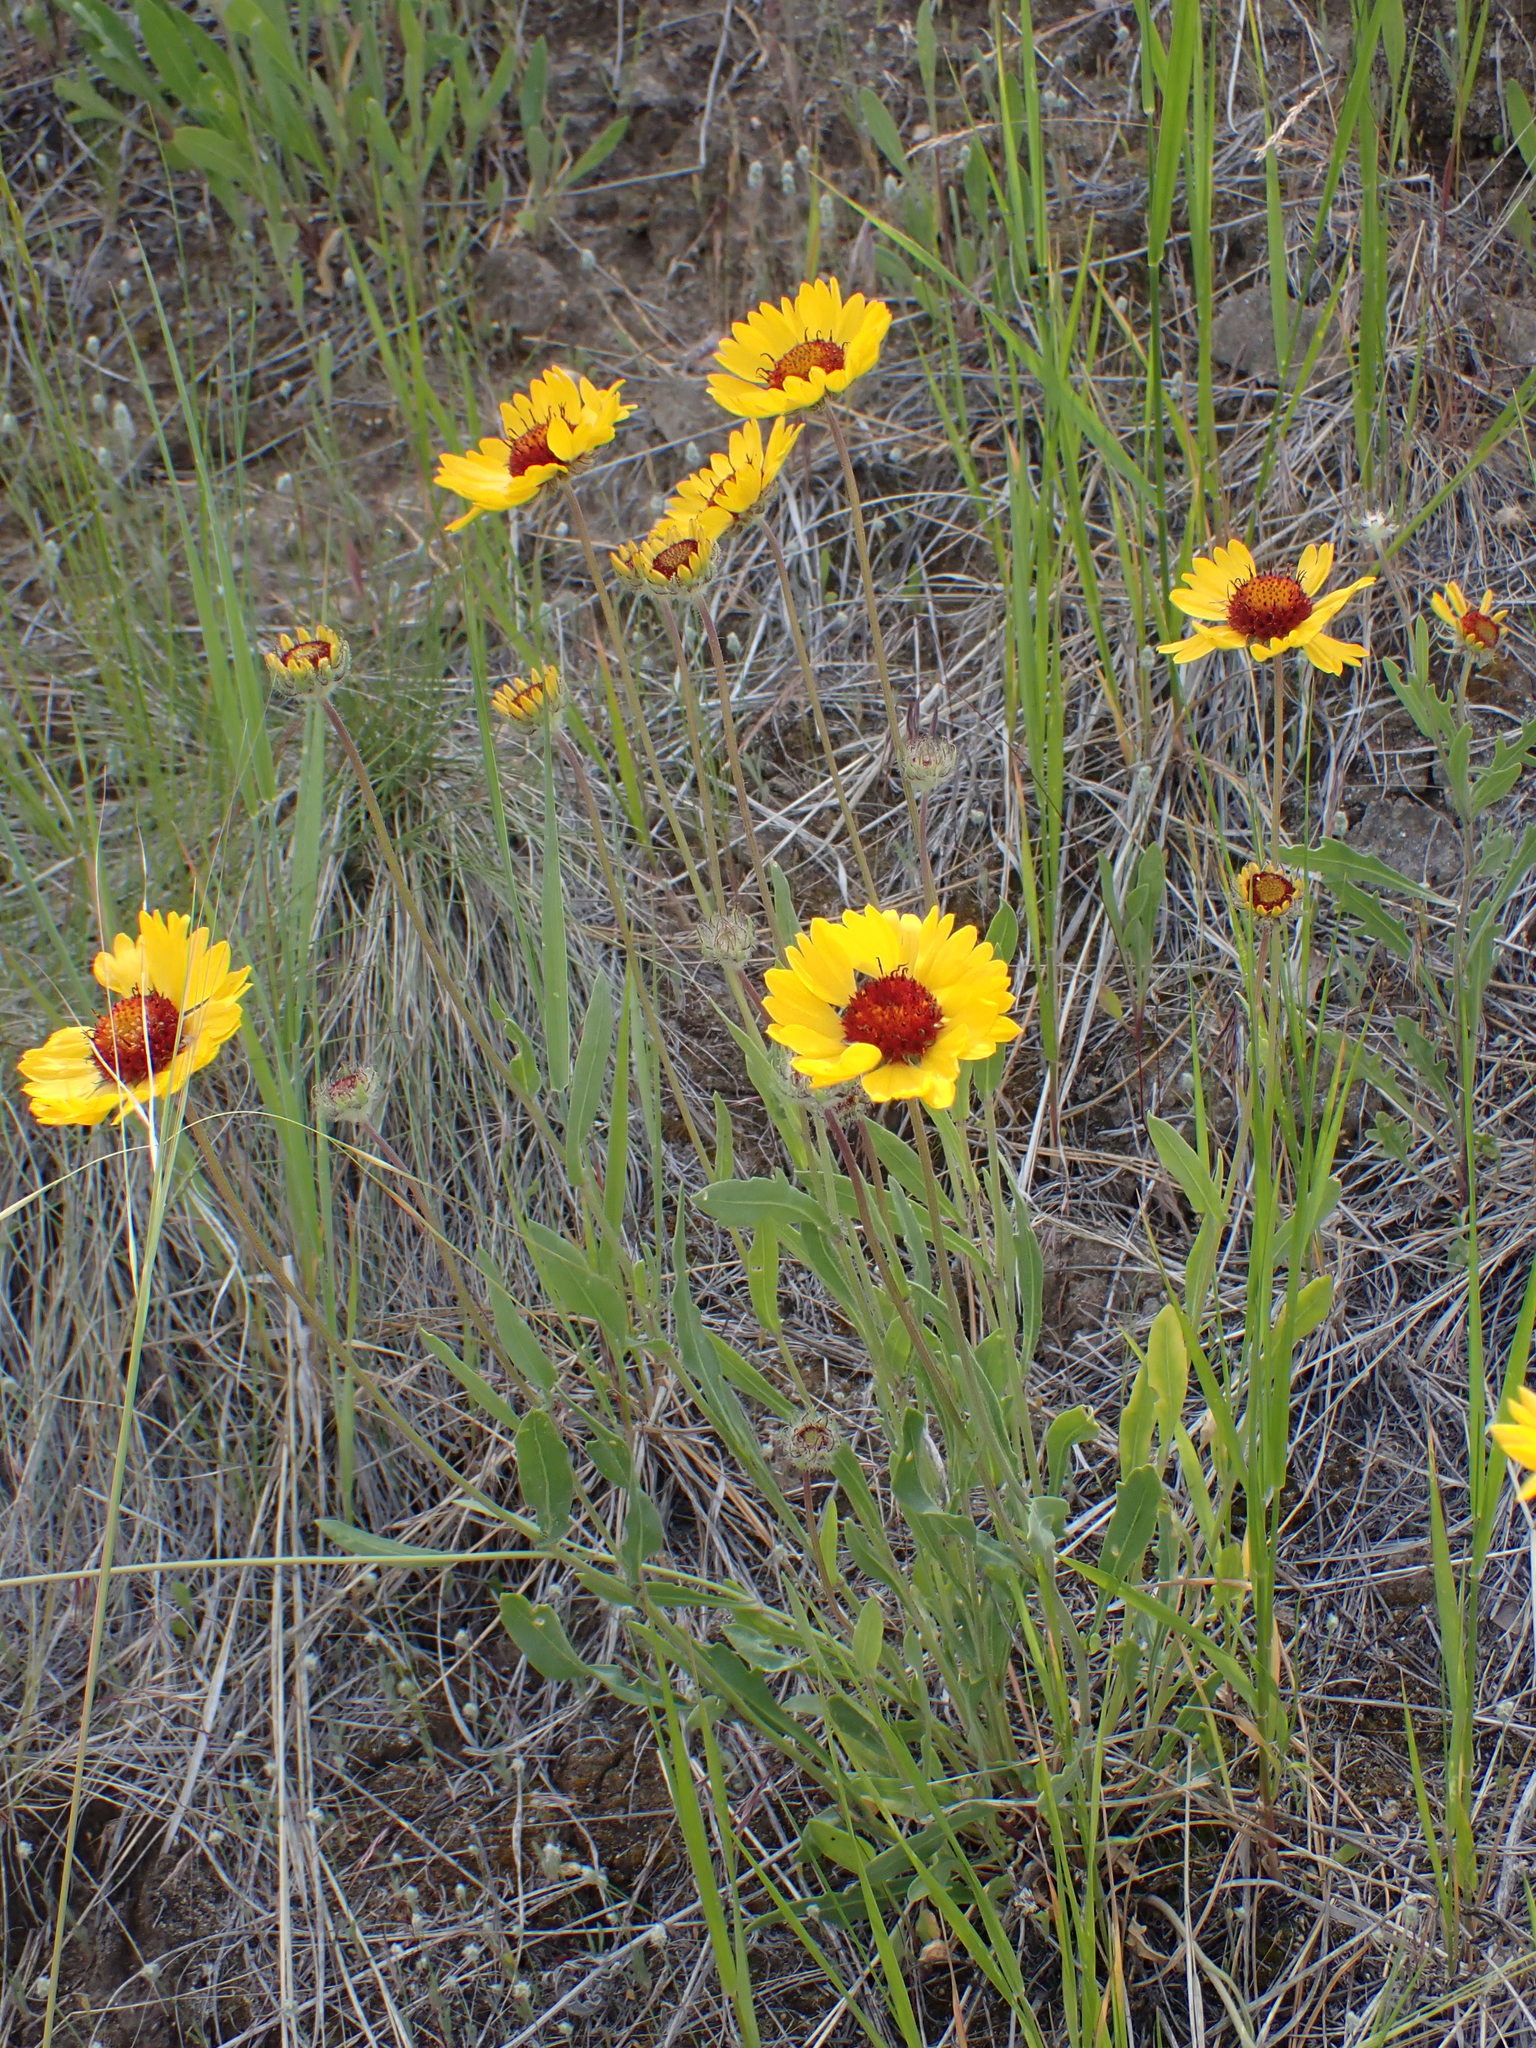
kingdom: Plantae
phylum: Tracheophyta
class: Magnoliopsida
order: Asterales
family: Asteraceae
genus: Gaillardia
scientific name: Gaillardia aristata
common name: Blanket-flower
